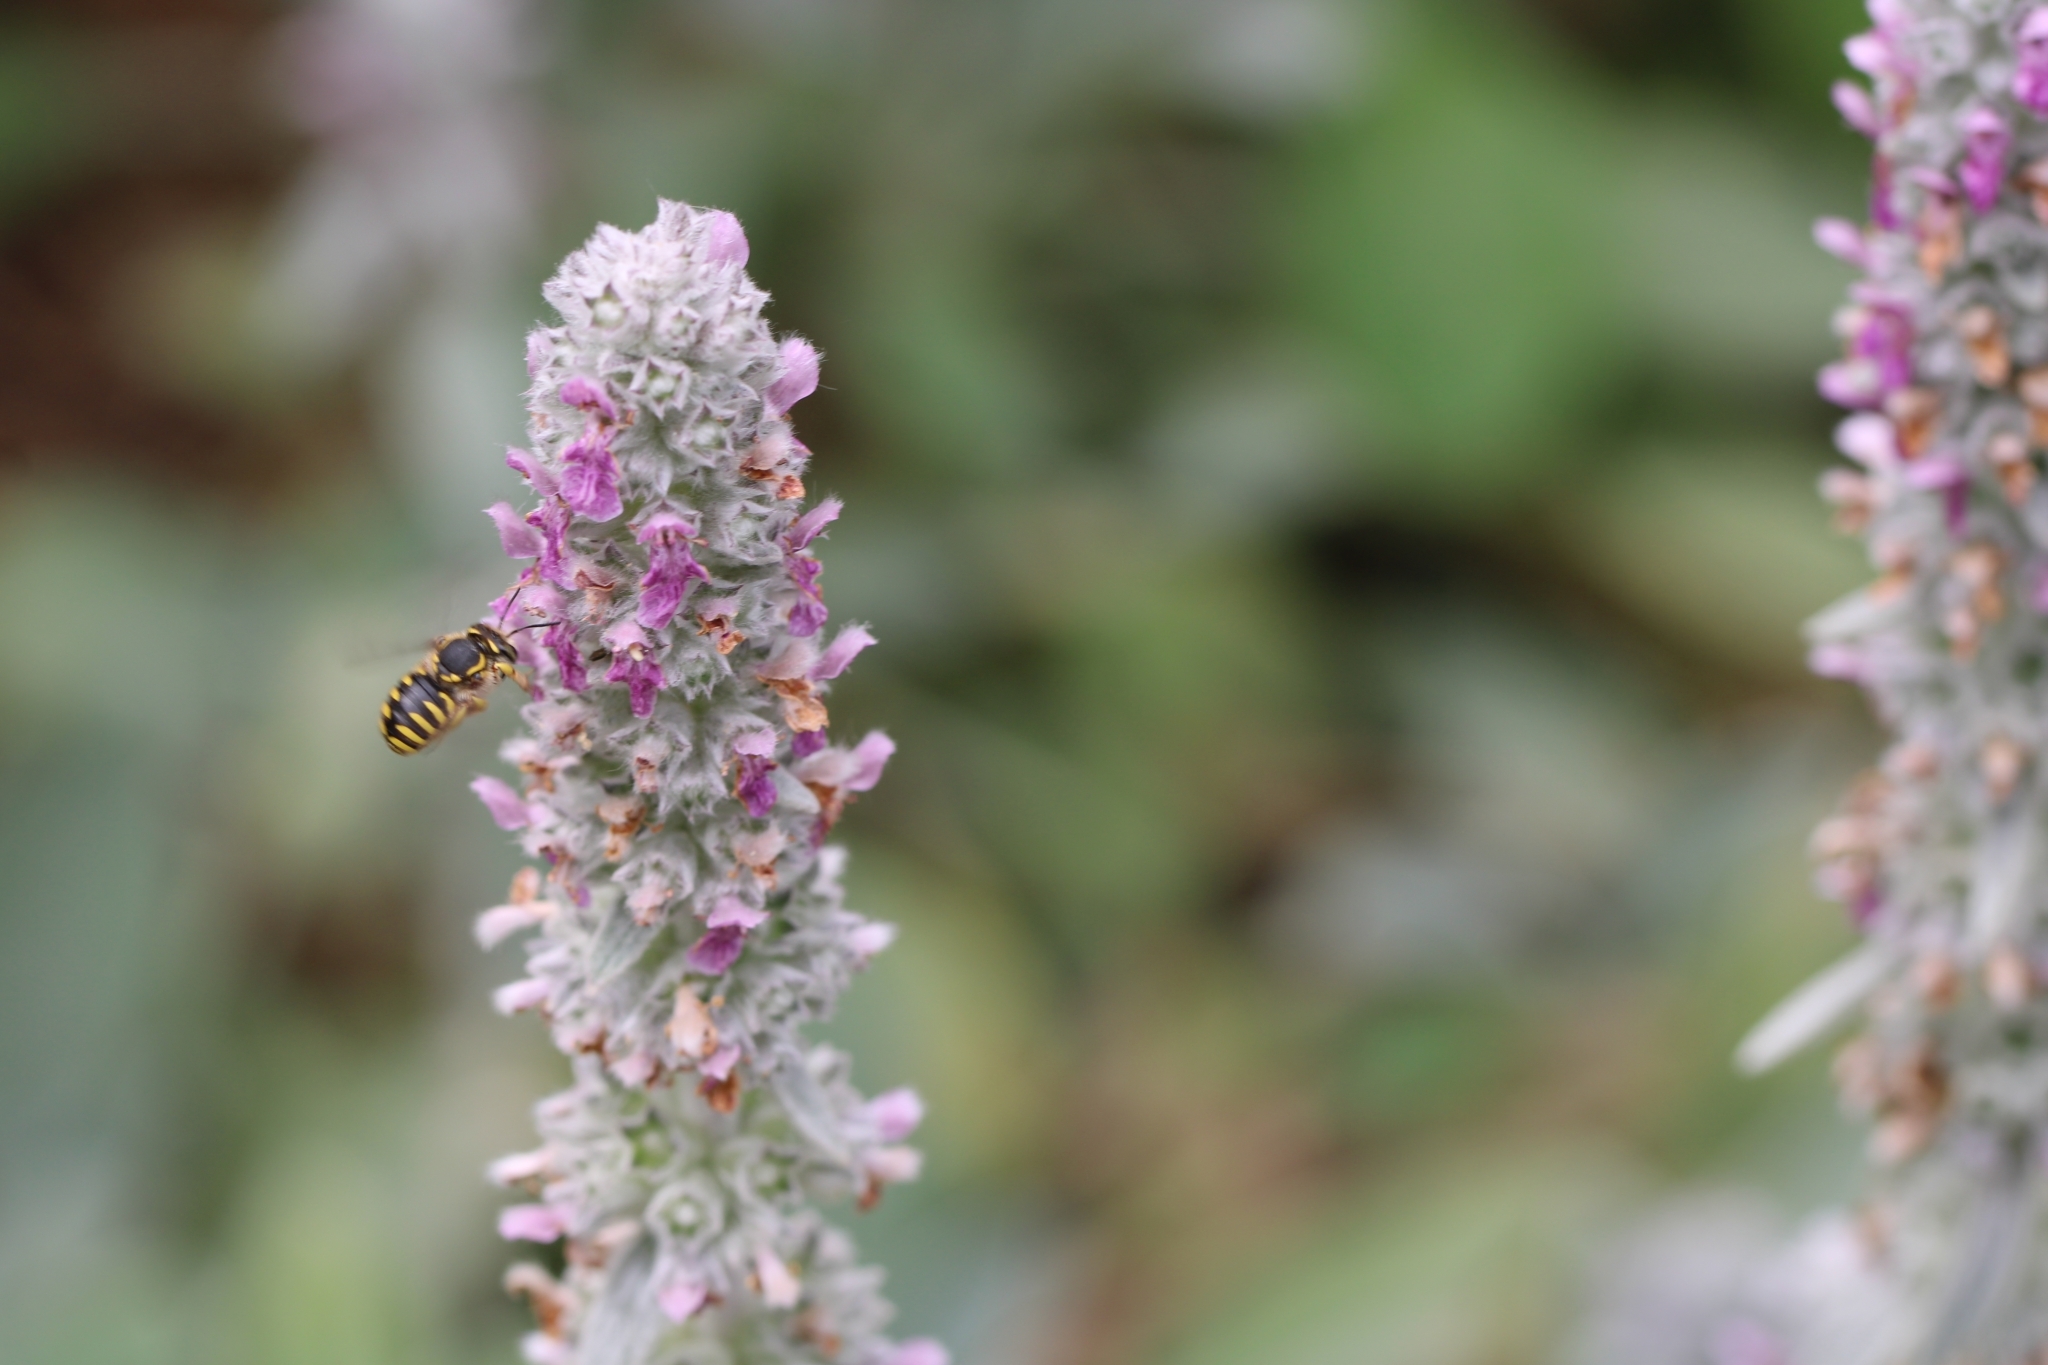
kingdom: Animalia
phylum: Arthropoda
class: Insecta
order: Hymenoptera
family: Megachilidae
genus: Anthidium
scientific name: Anthidium manicatum
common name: Wool carder bee
